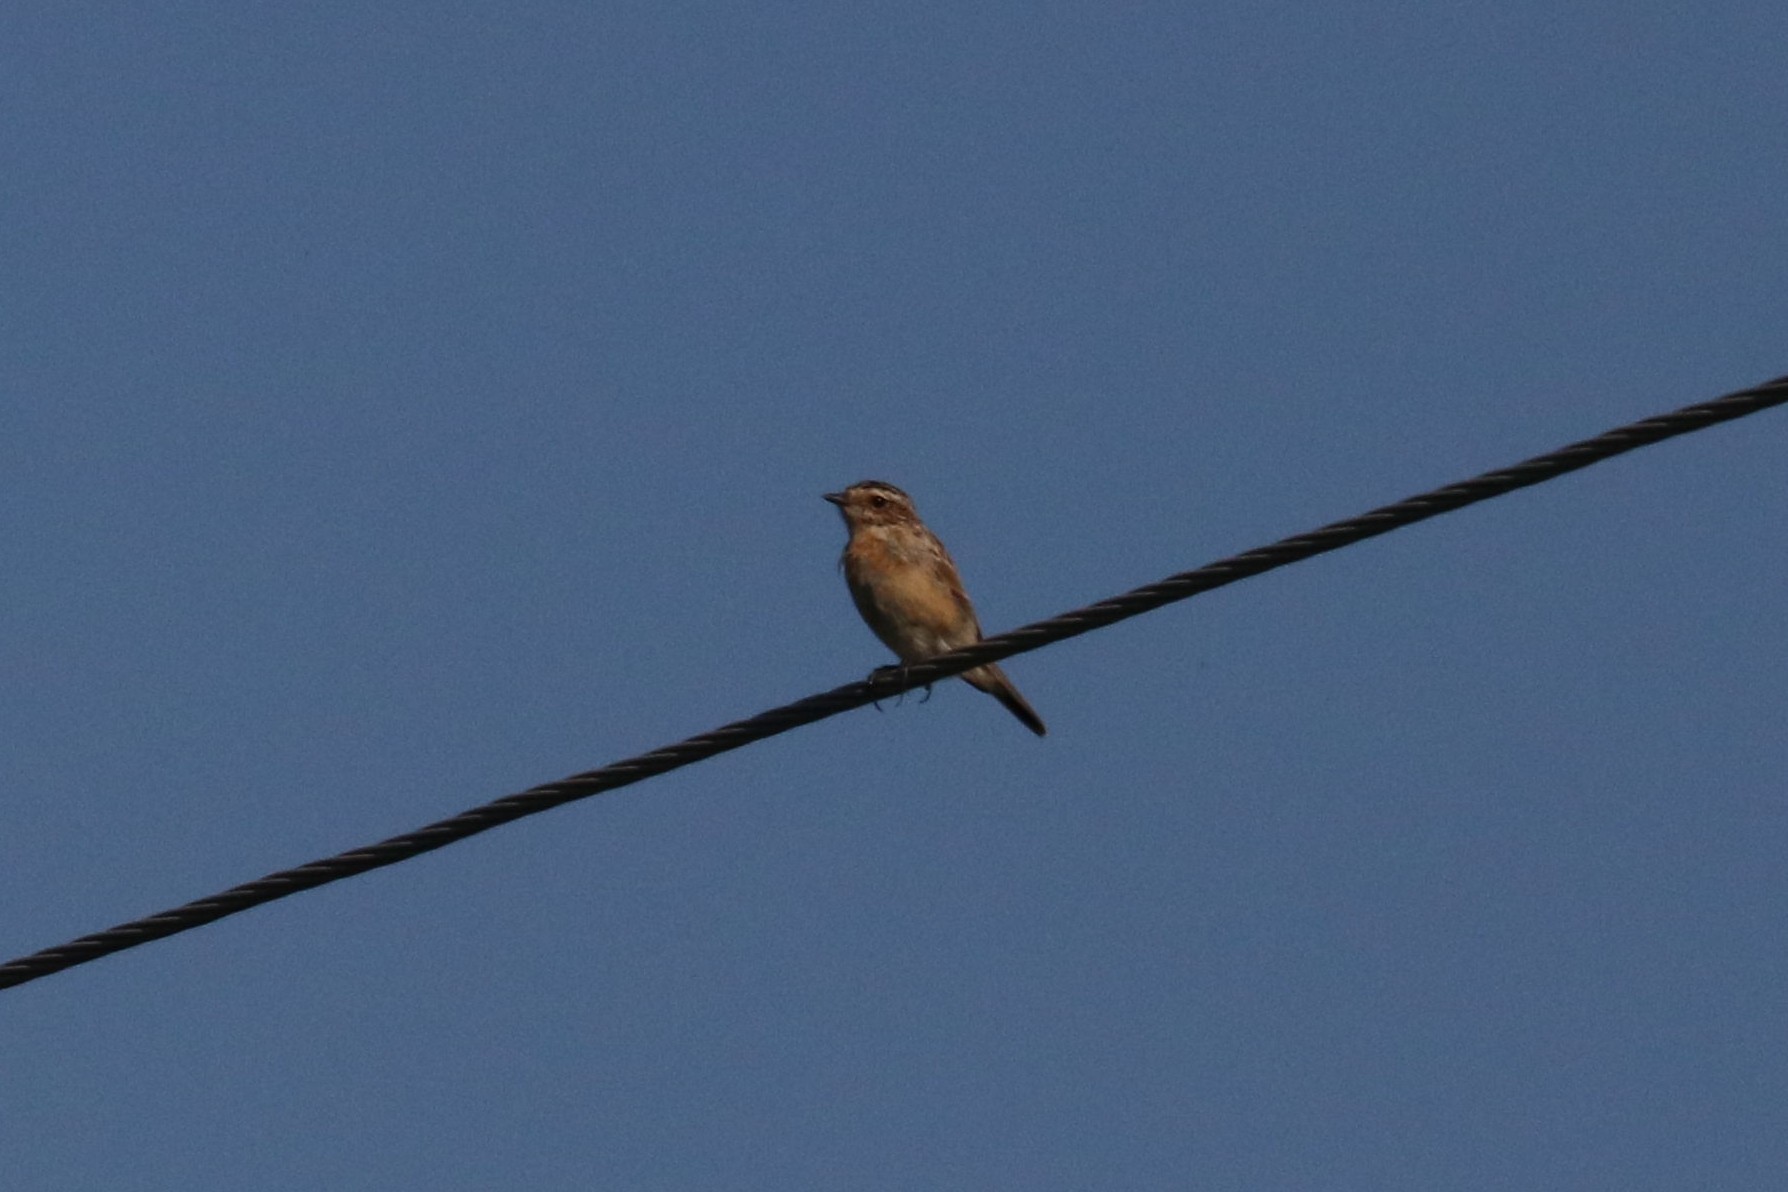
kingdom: Animalia
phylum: Chordata
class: Aves
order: Passeriformes
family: Muscicapidae
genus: Saxicola
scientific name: Saxicola rubetra
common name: Whinchat
